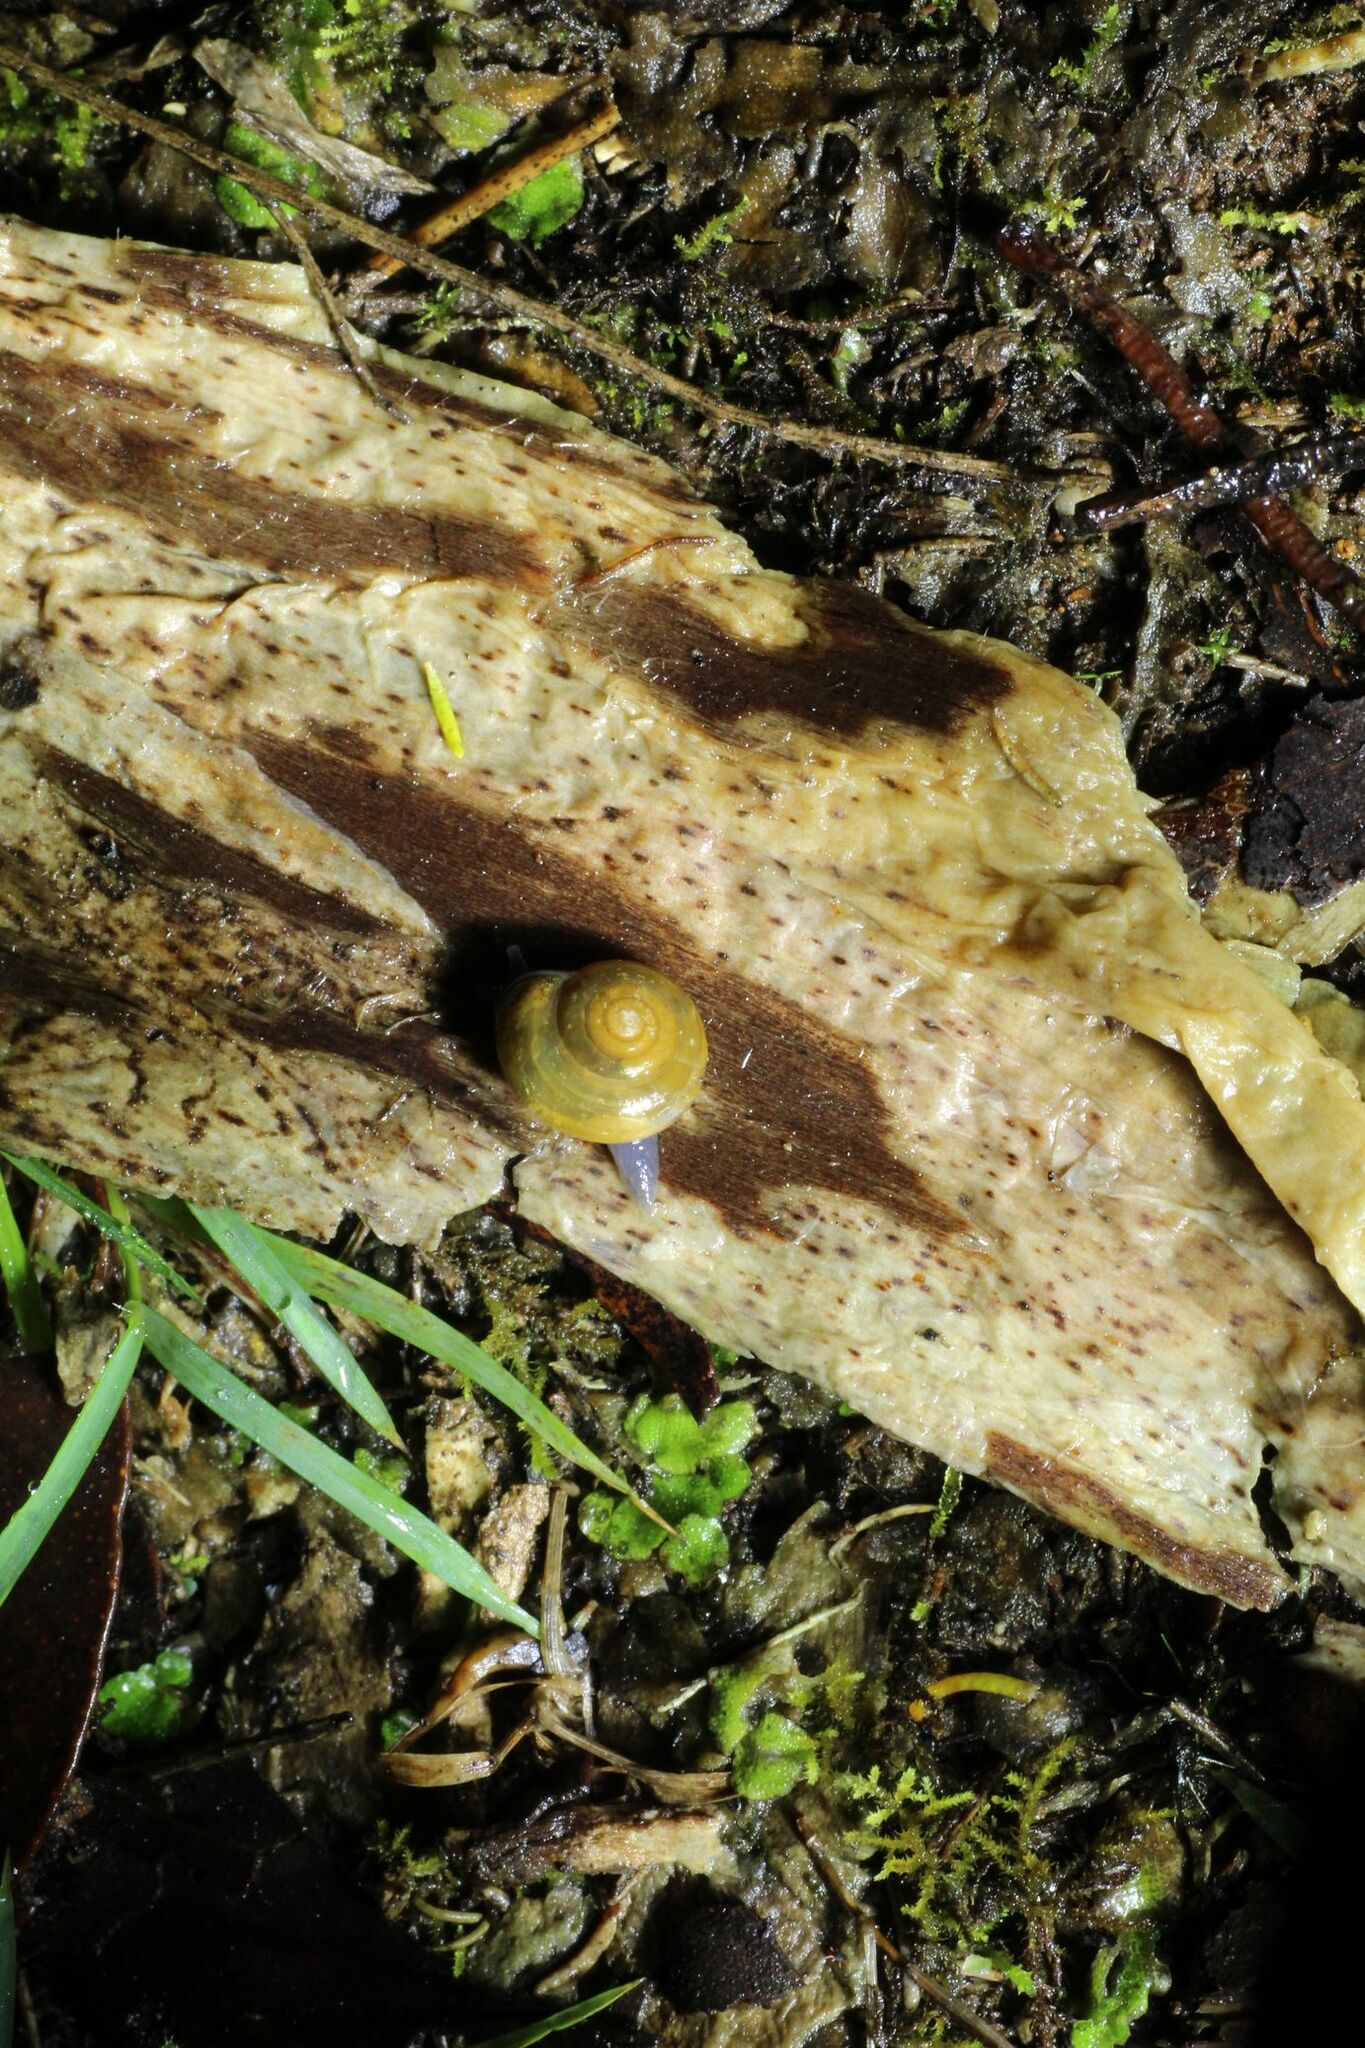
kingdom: Animalia
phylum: Mollusca
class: Gastropoda
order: Stylommatophora
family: Oxychilidae
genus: Oxychilus
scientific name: Oxychilus alliarius
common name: Garlic glass-snail
